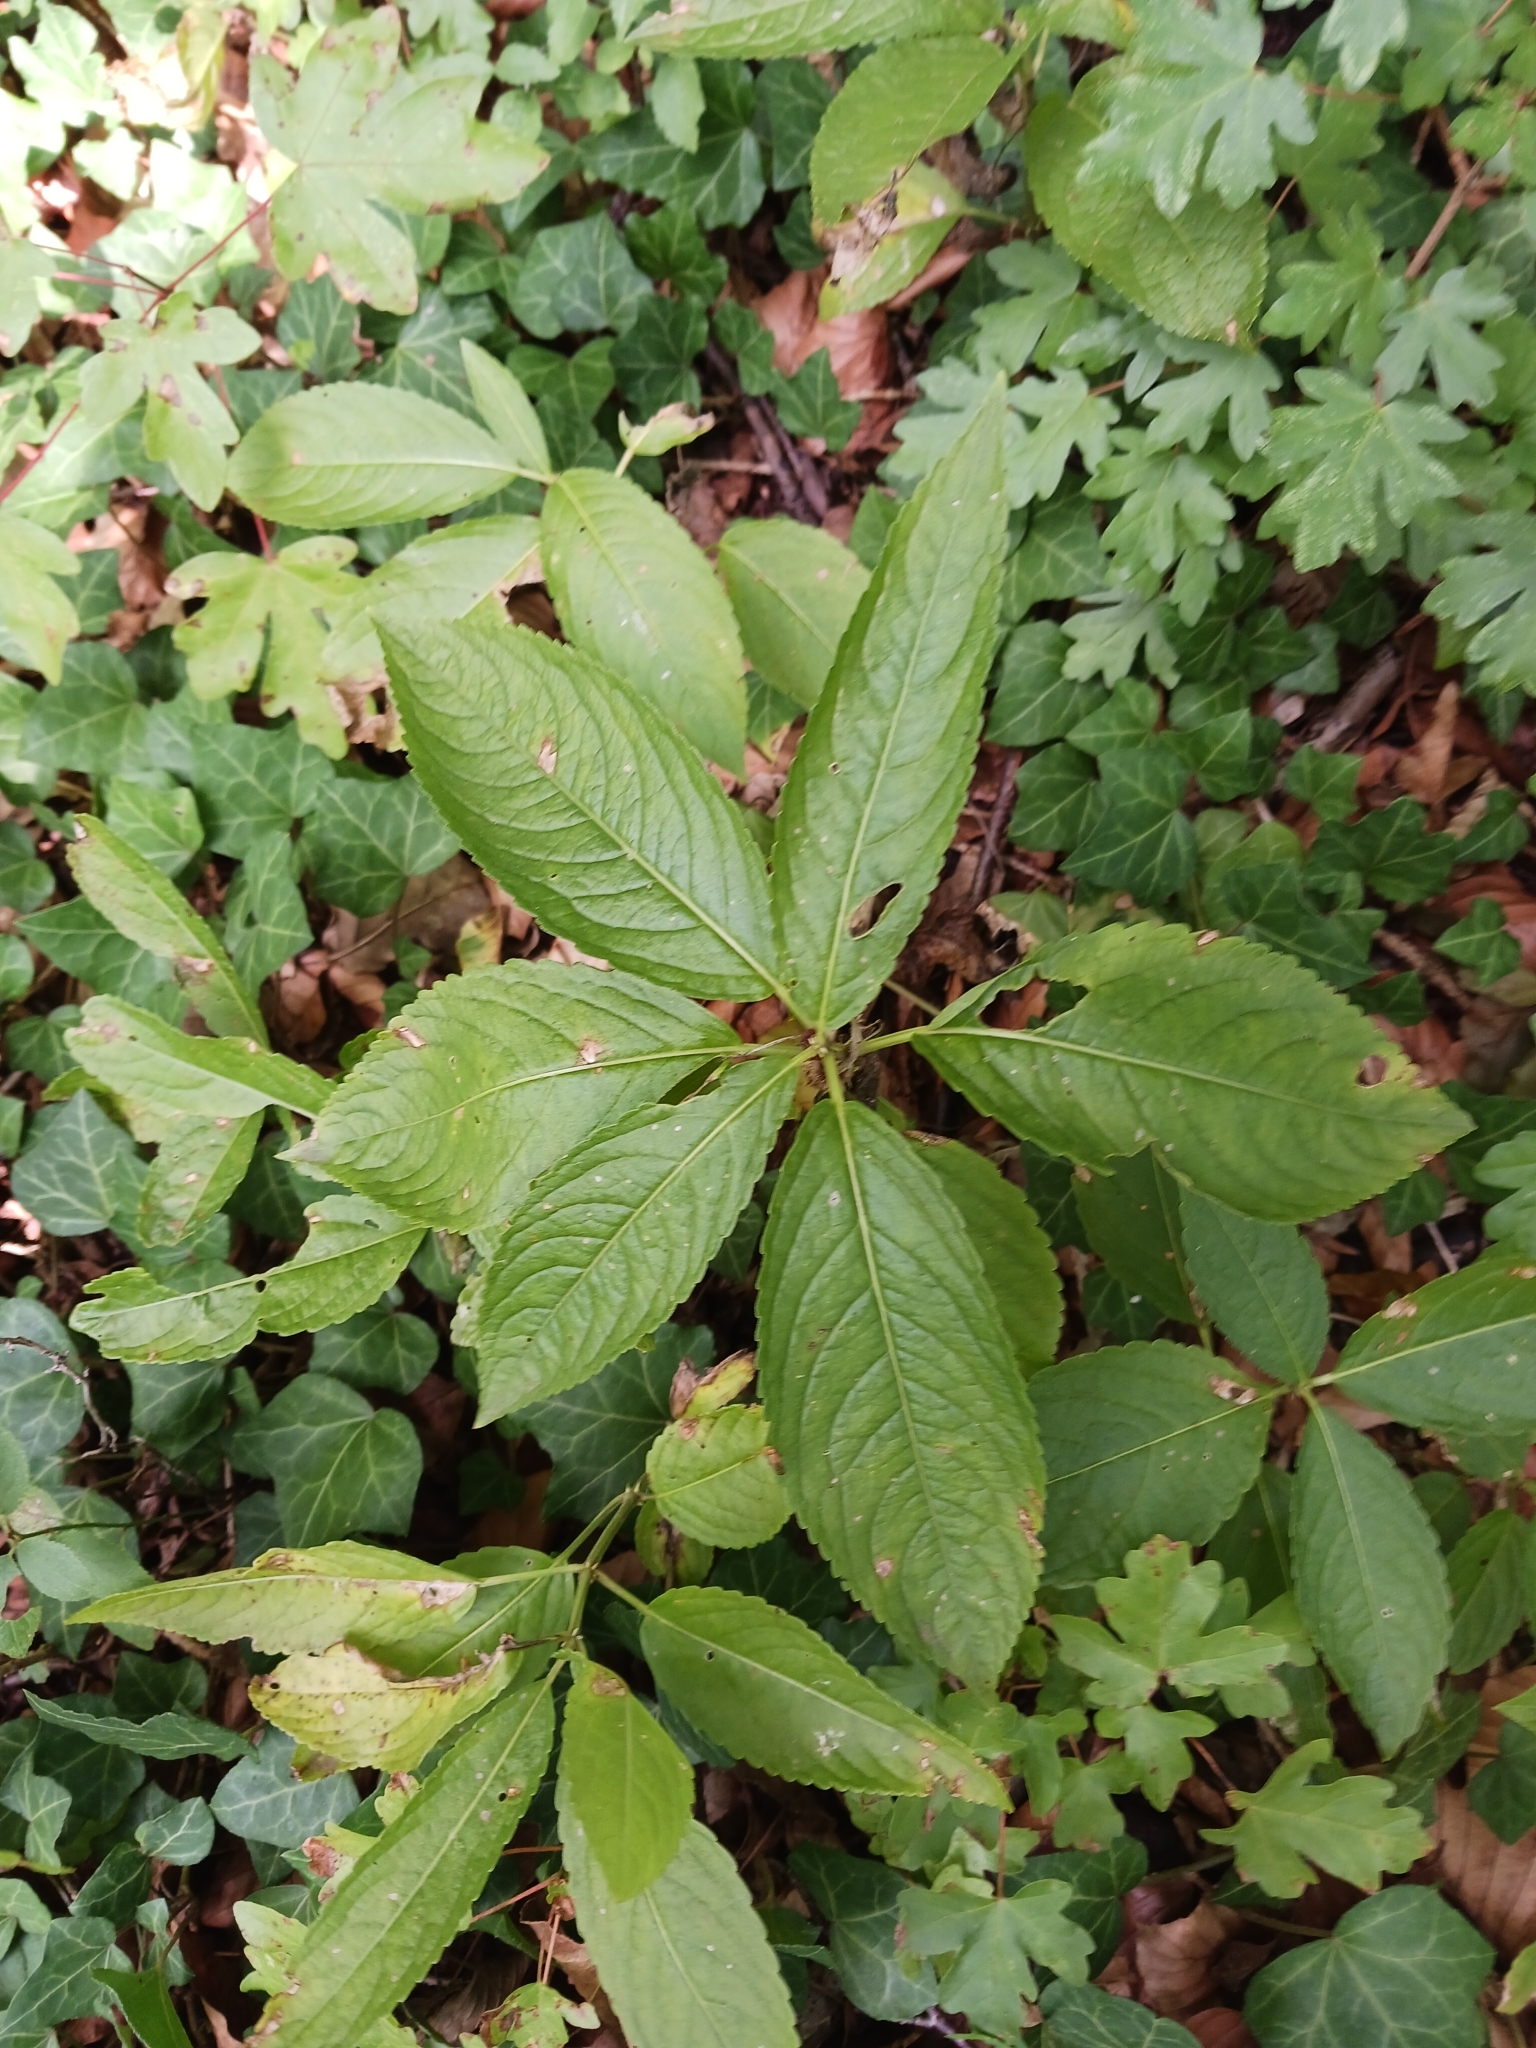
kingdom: Plantae
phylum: Tracheophyta
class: Magnoliopsida
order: Malpighiales
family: Euphorbiaceae
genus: Mercurialis
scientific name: Mercurialis perennis
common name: Dog mercury
